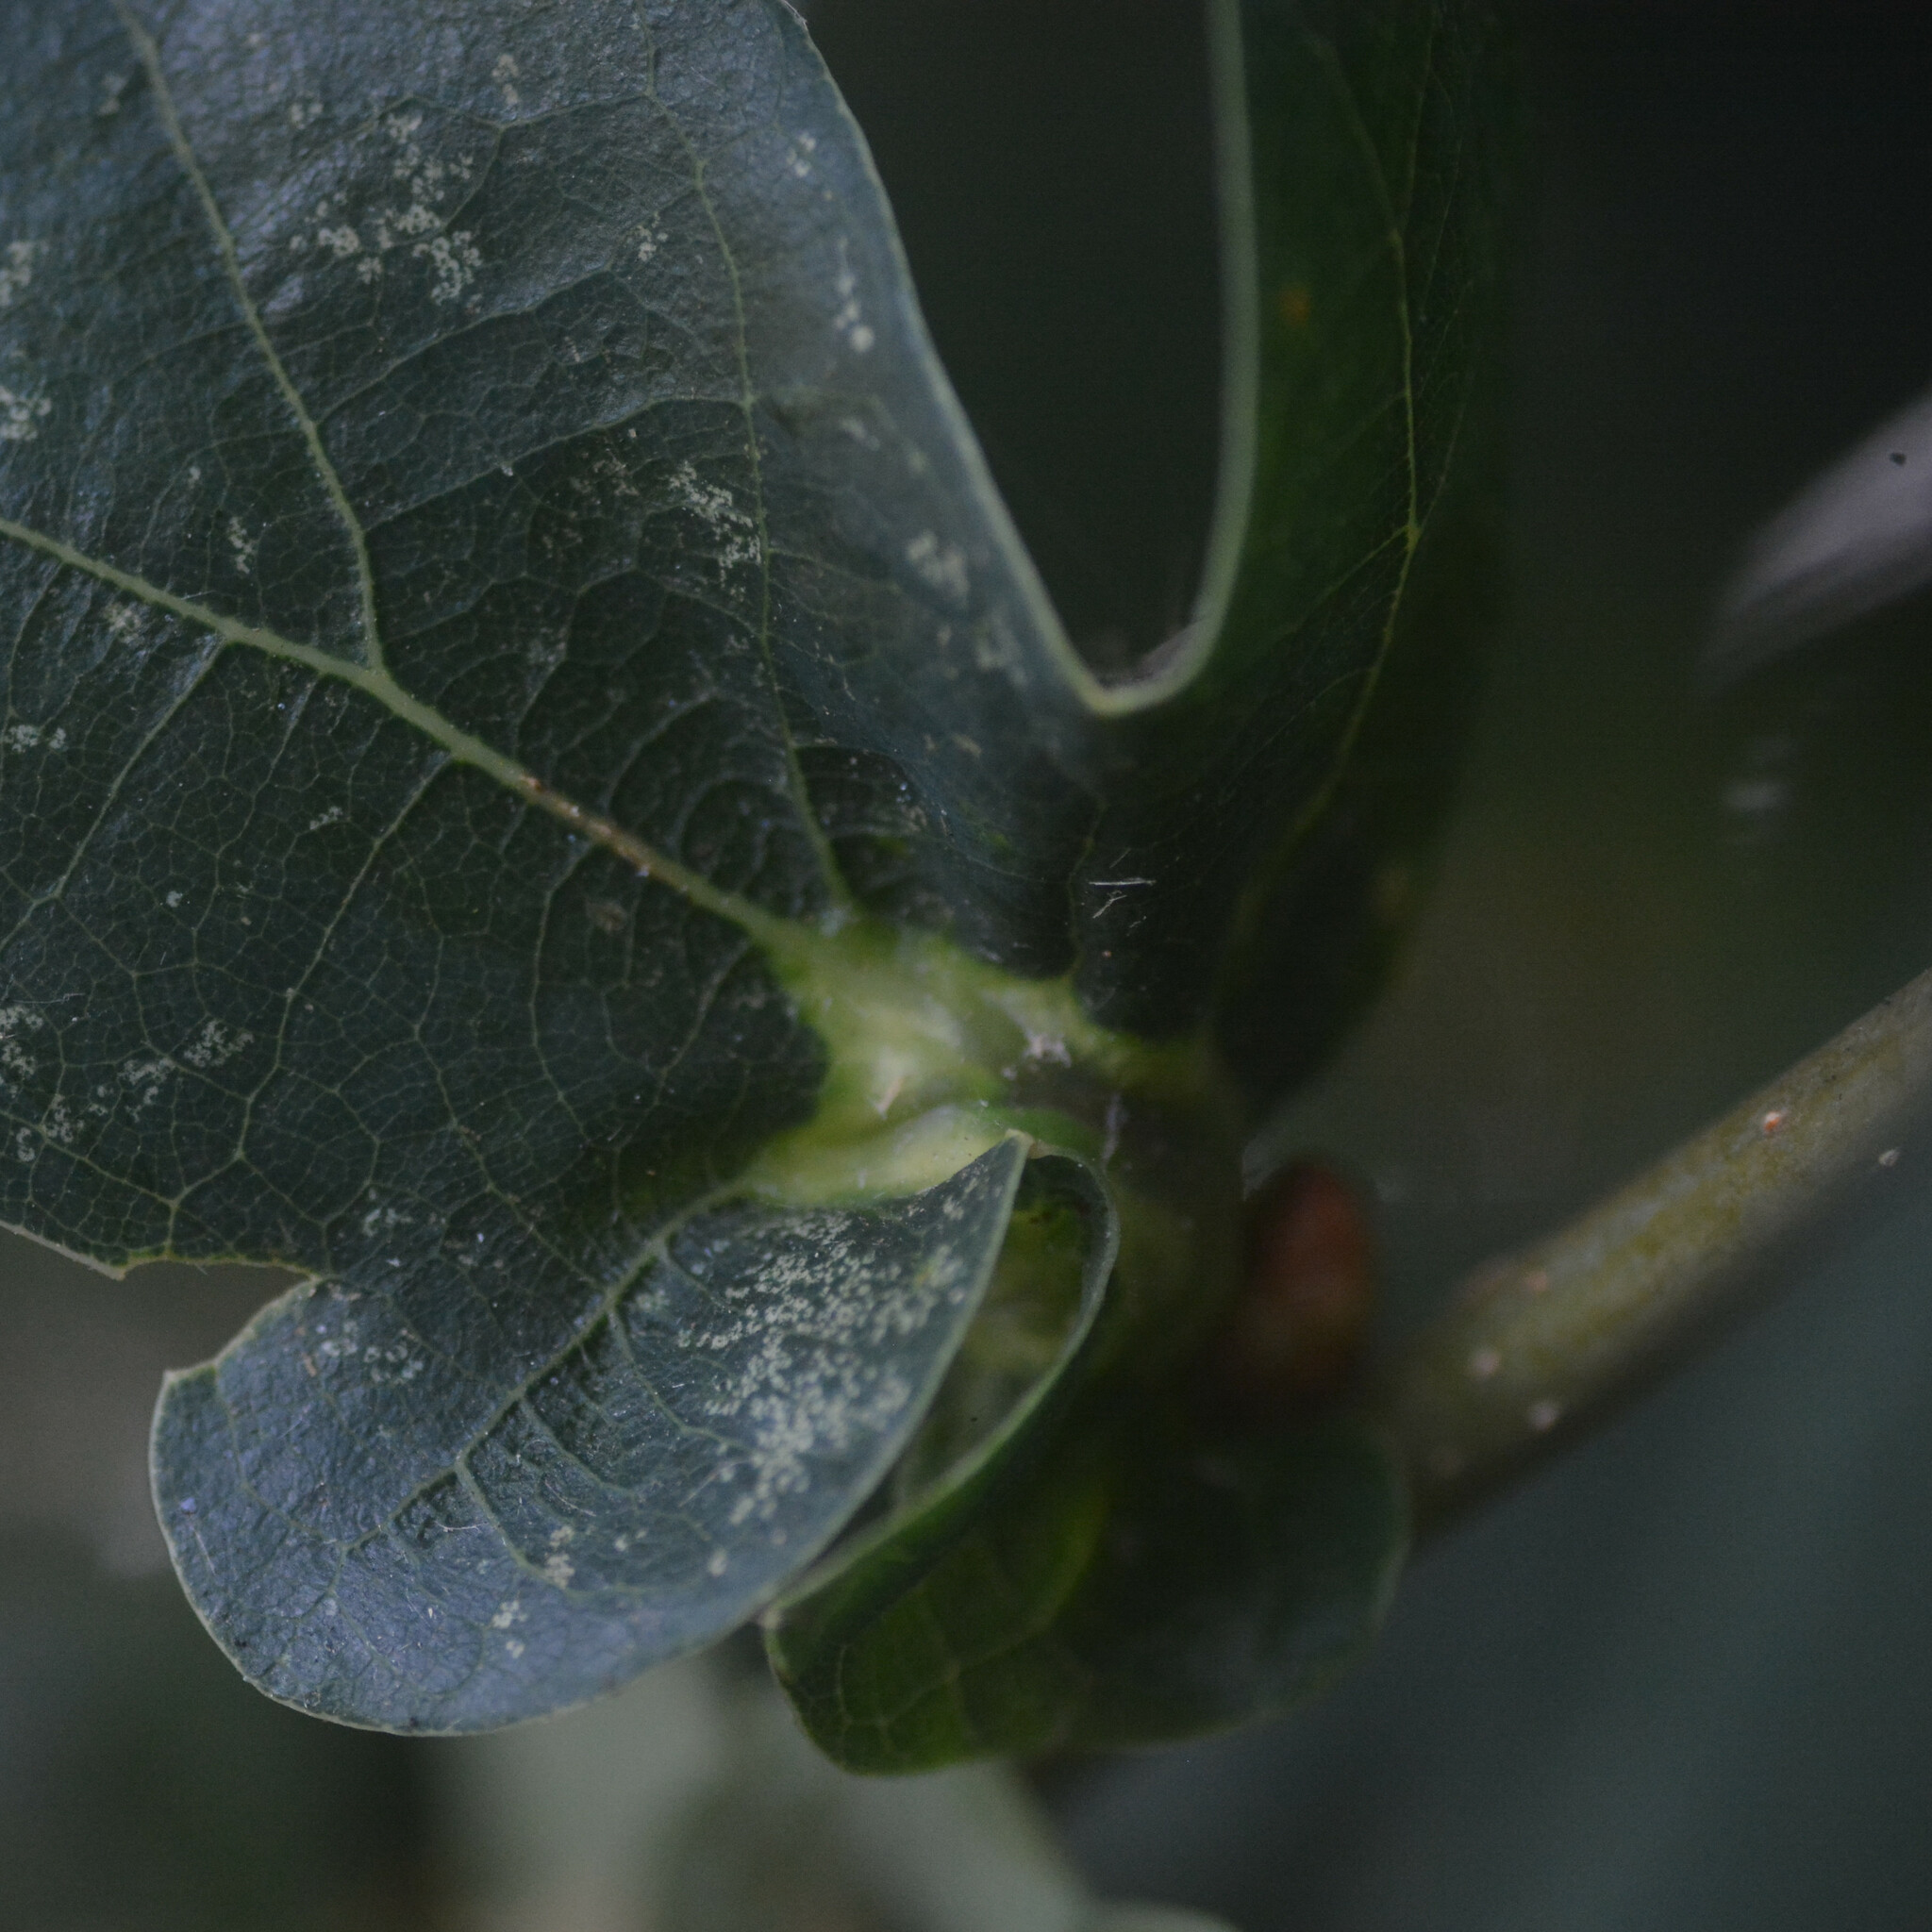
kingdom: Animalia
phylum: Arthropoda
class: Insecta
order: Hymenoptera
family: Cynipidae
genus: Andricus
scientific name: Andricus curvator
